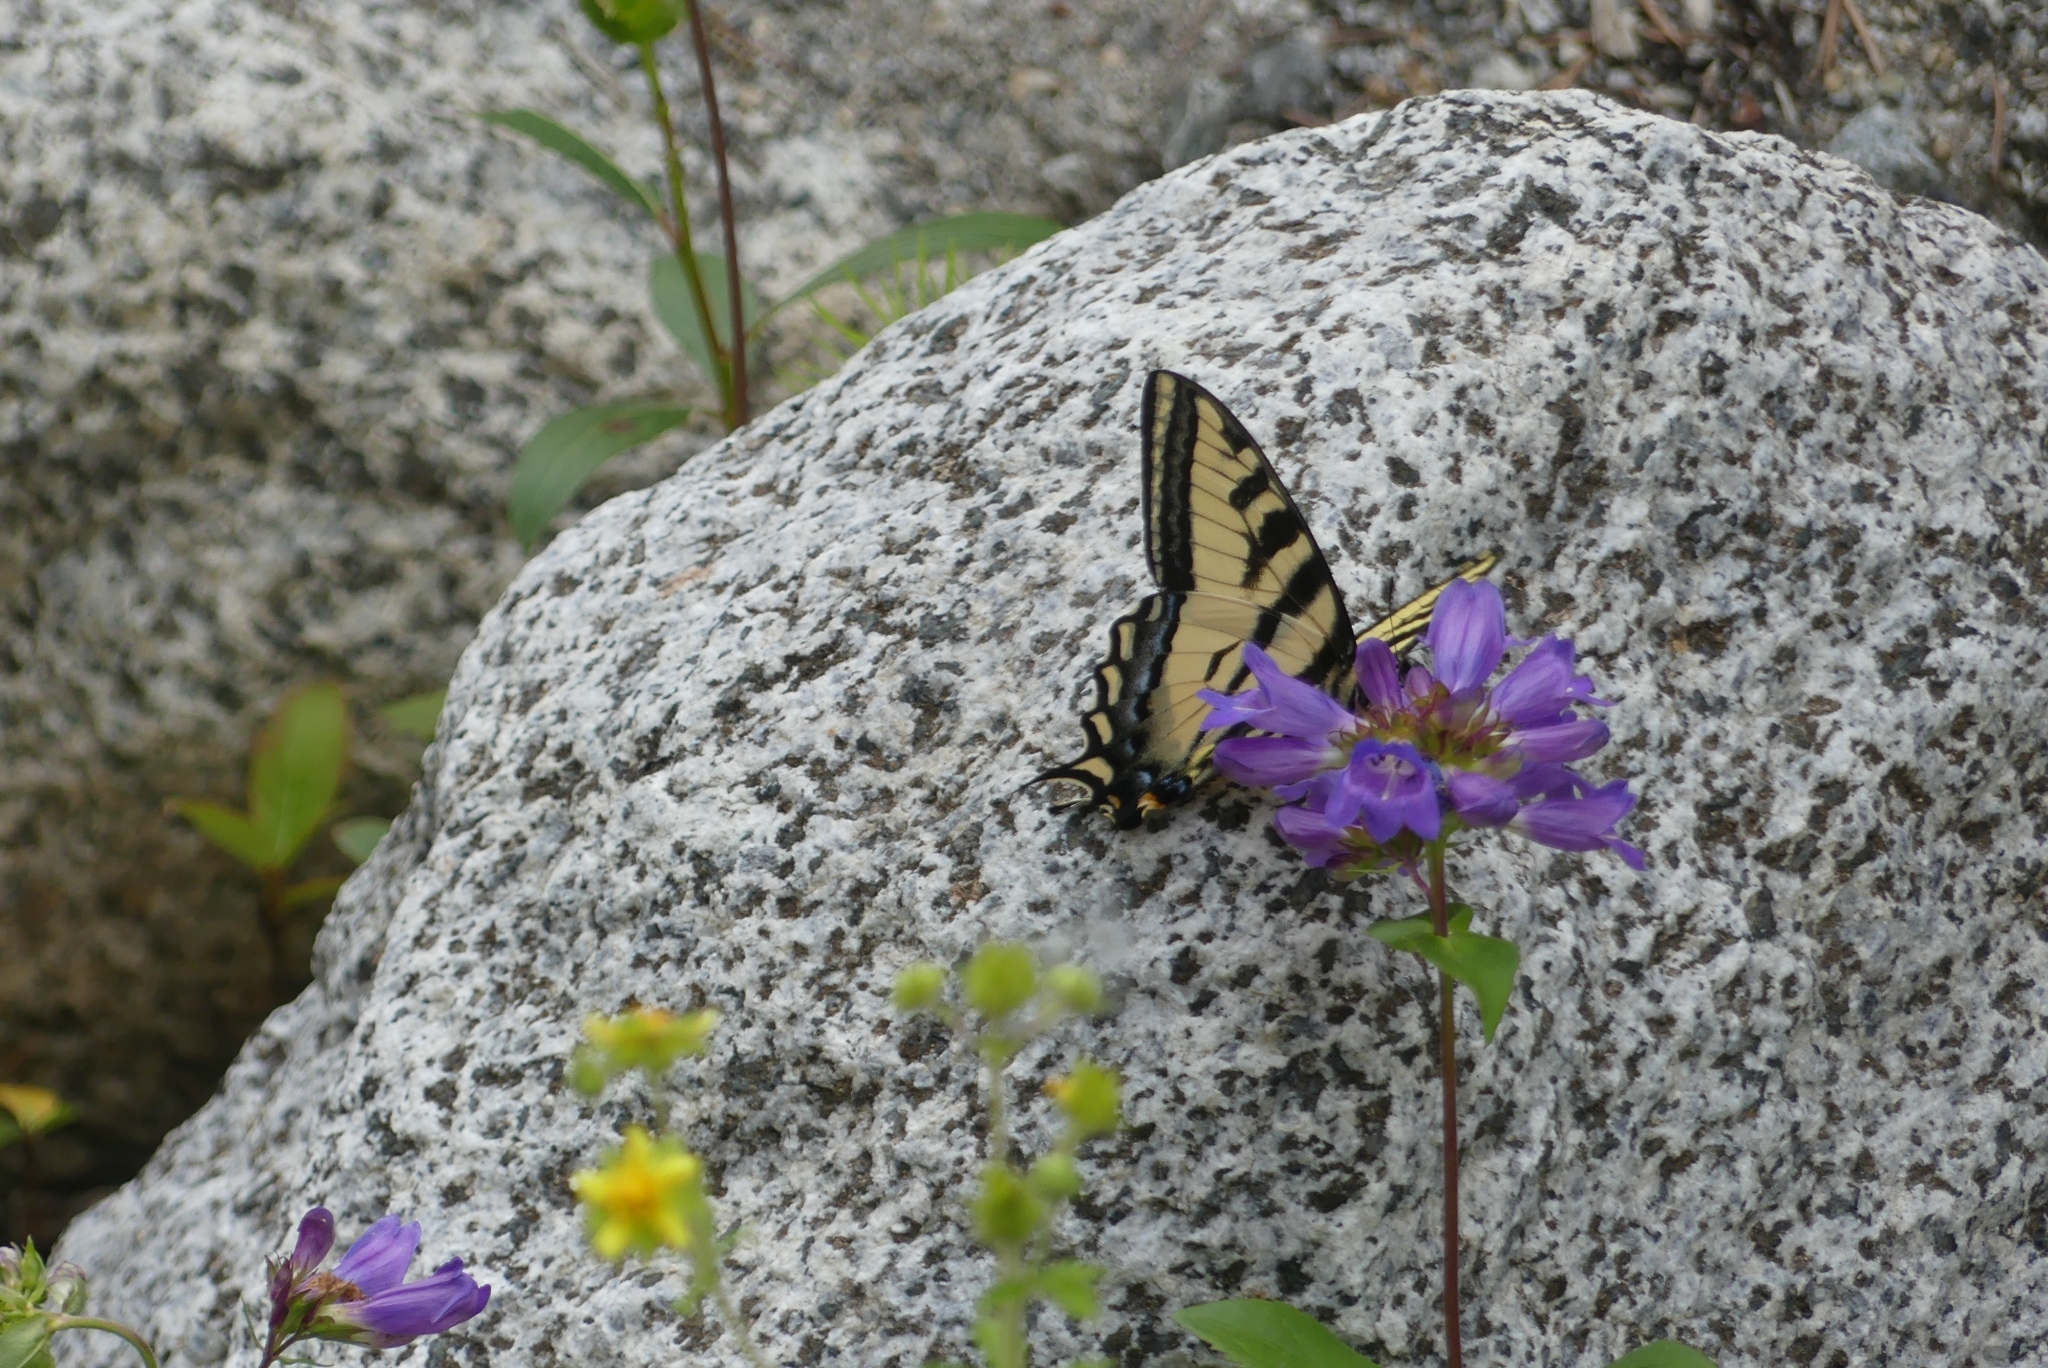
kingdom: Animalia
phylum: Arthropoda
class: Insecta
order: Lepidoptera
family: Papilionidae
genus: Papilio
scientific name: Papilio rutulus
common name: Western tiger swallowtail
